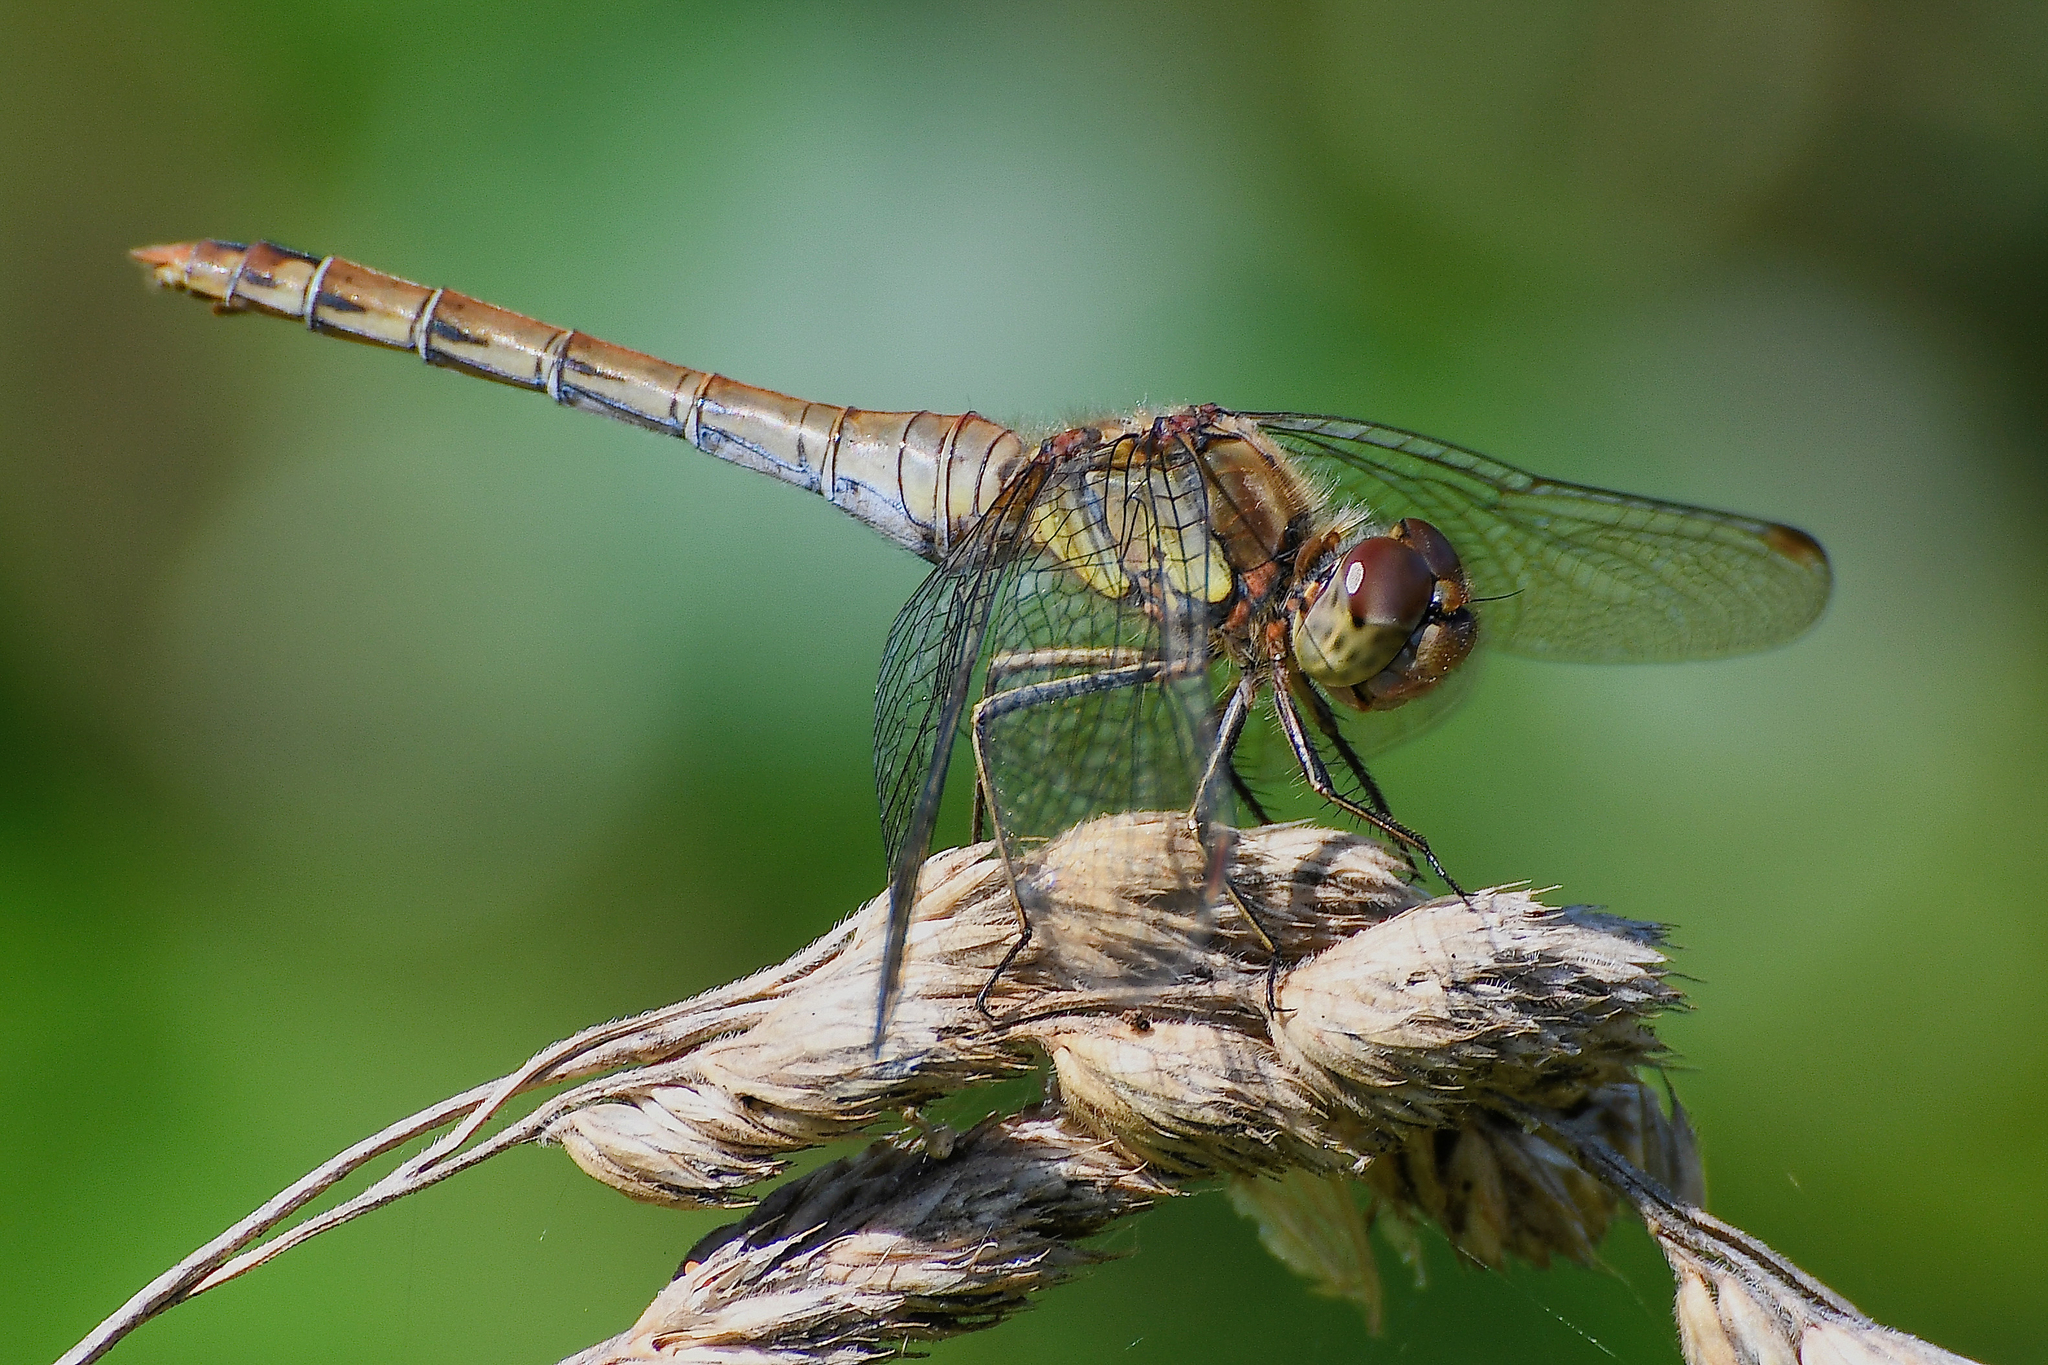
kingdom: Animalia
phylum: Arthropoda
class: Insecta
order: Odonata
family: Libellulidae
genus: Sympetrum
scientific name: Sympetrum striolatum
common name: Common darter
